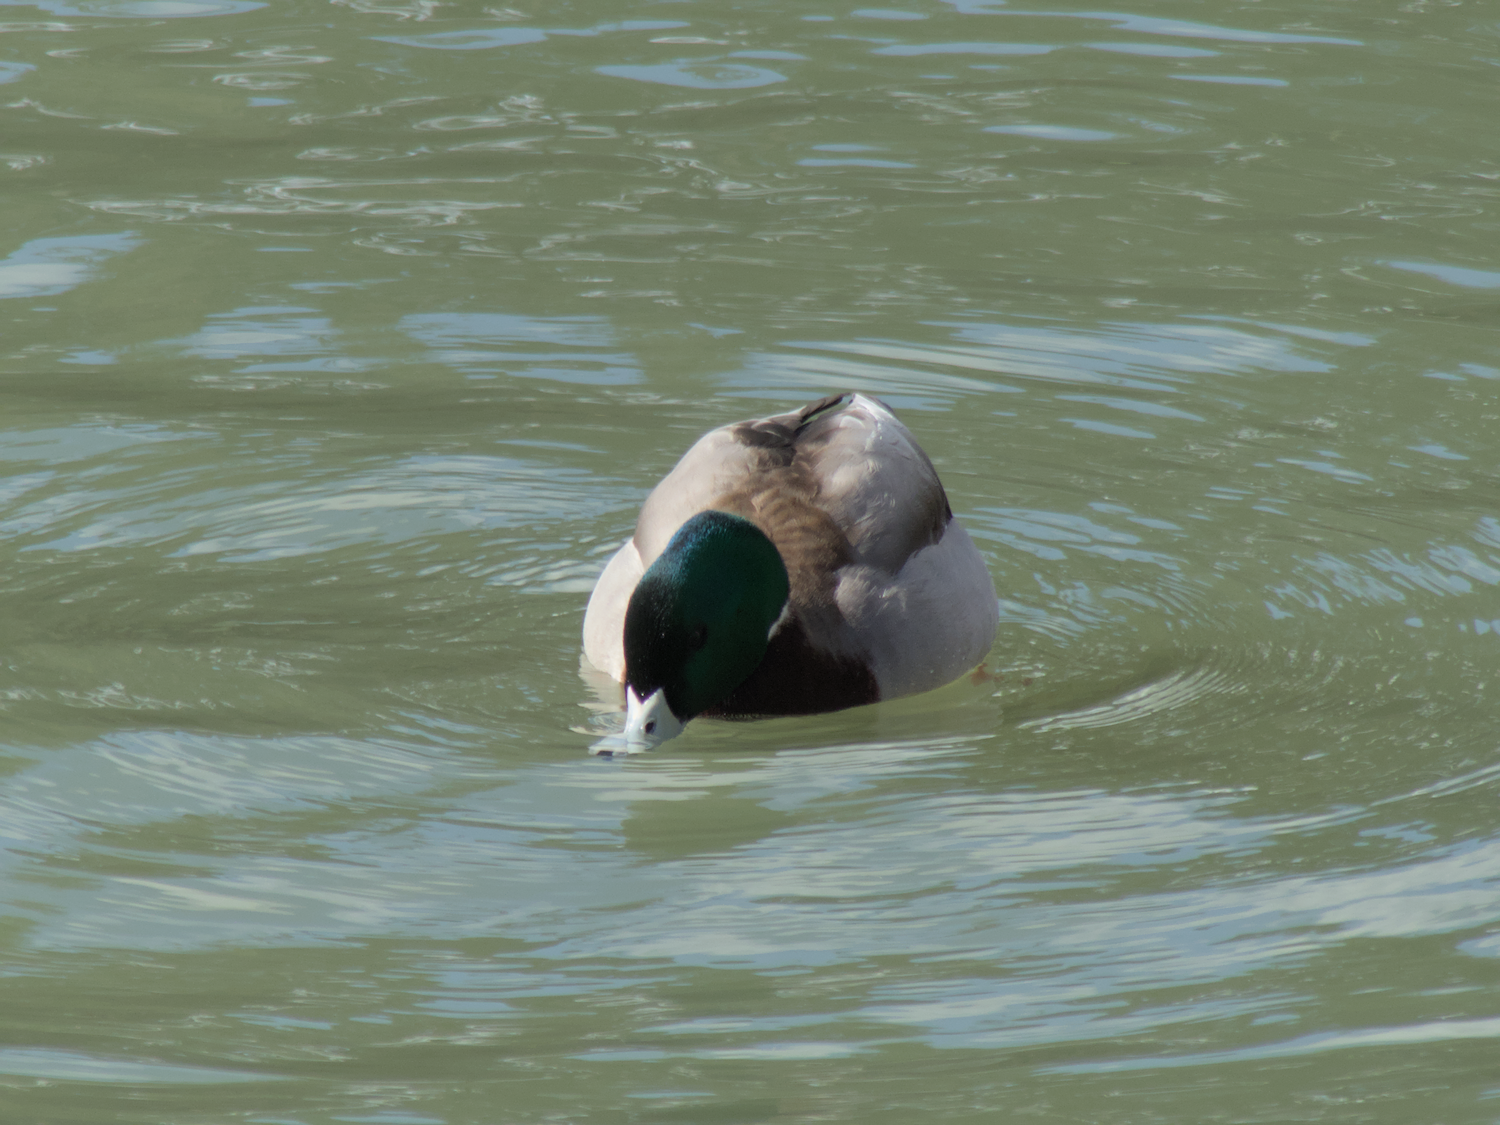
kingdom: Animalia
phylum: Chordata
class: Aves
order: Anseriformes
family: Anatidae
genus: Anas
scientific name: Anas platyrhynchos
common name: Mallard
